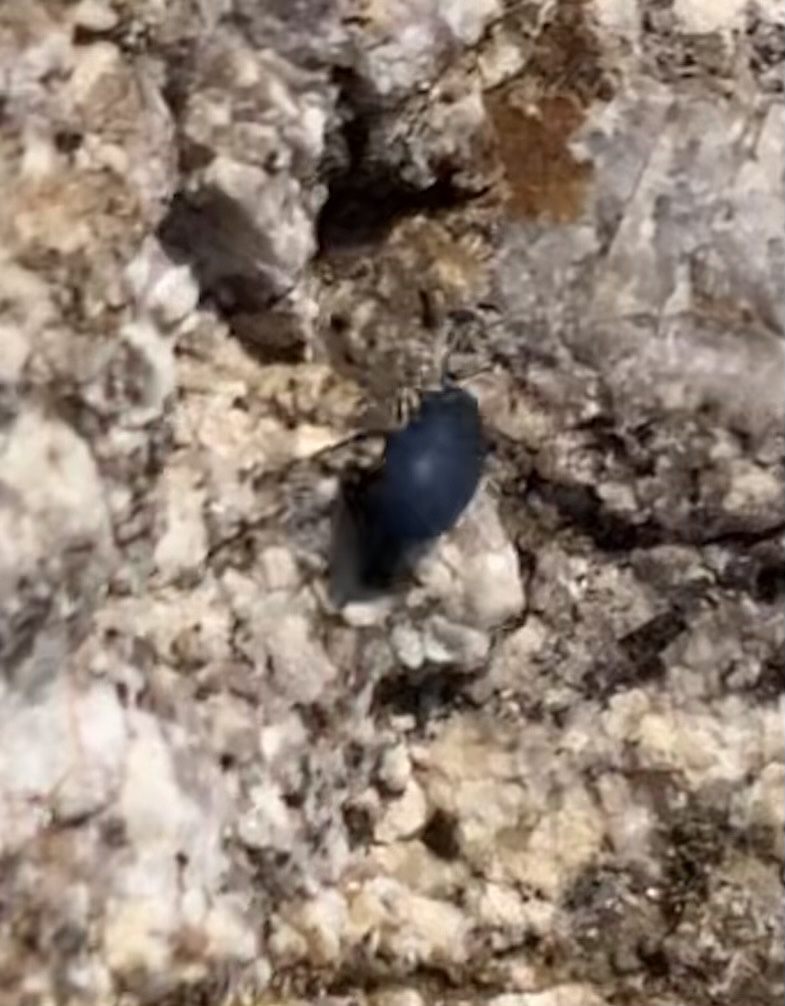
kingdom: Animalia
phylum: Arthropoda
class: Insecta
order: Coleoptera
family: Tenebrionidae
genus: Zophosis
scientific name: Zophosis punctata
